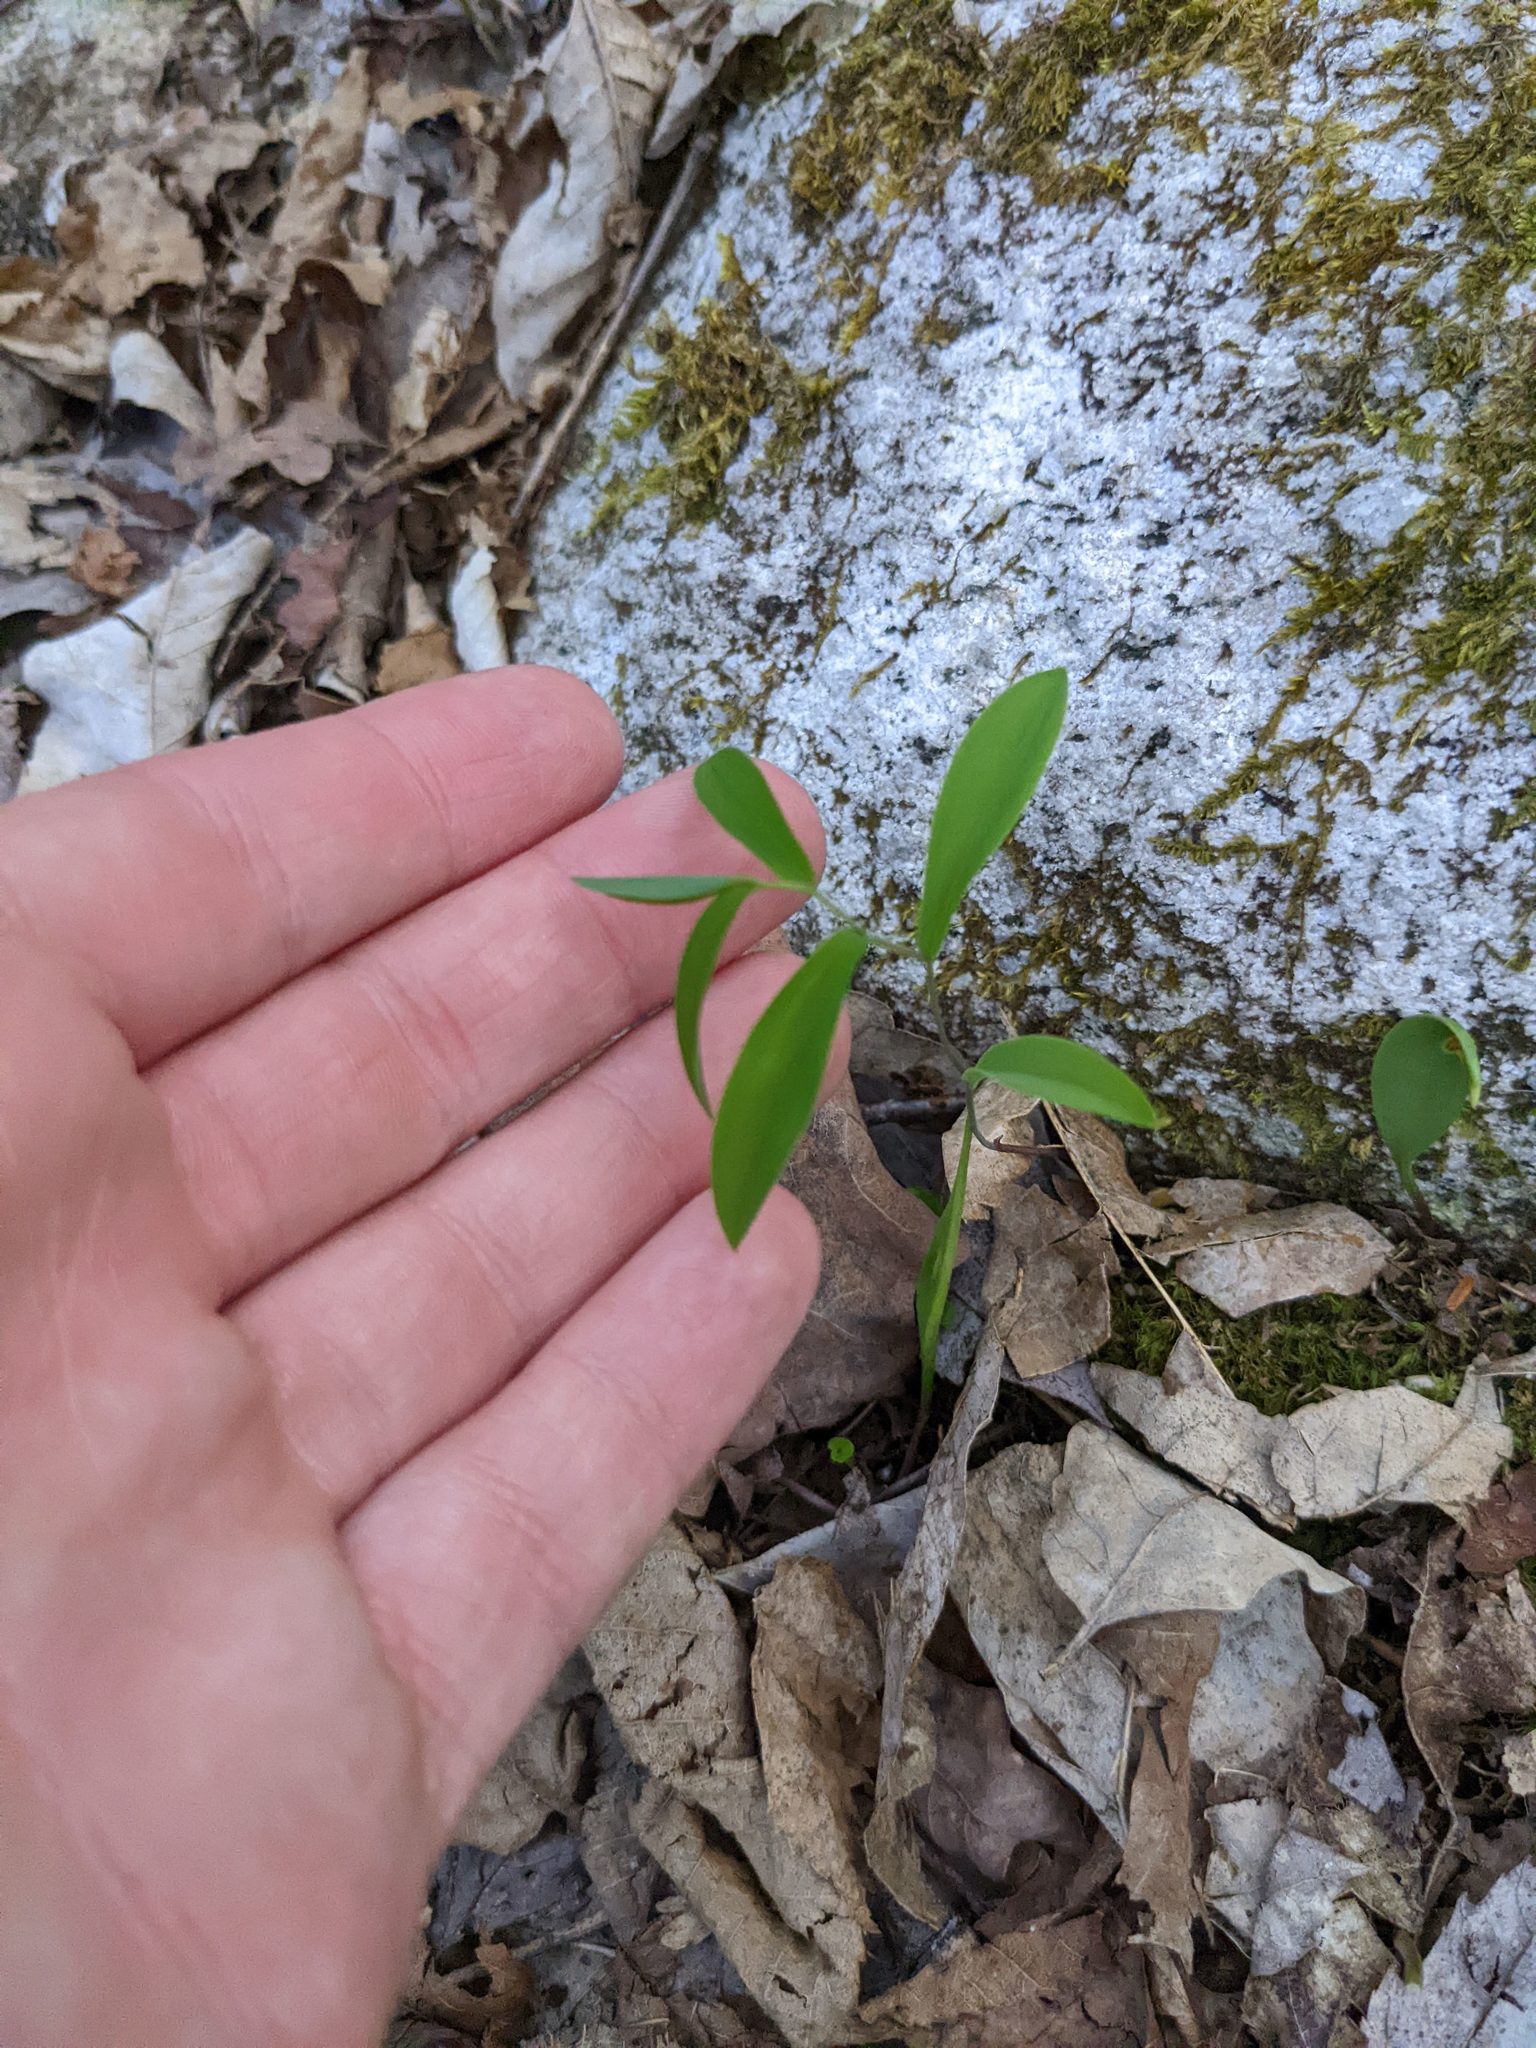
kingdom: Plantae
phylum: Tracheophyta
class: Liliopsida
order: Liliales
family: Colchicaceae
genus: Uvularia
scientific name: Uvularia sessilifolia
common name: Straw-lily
